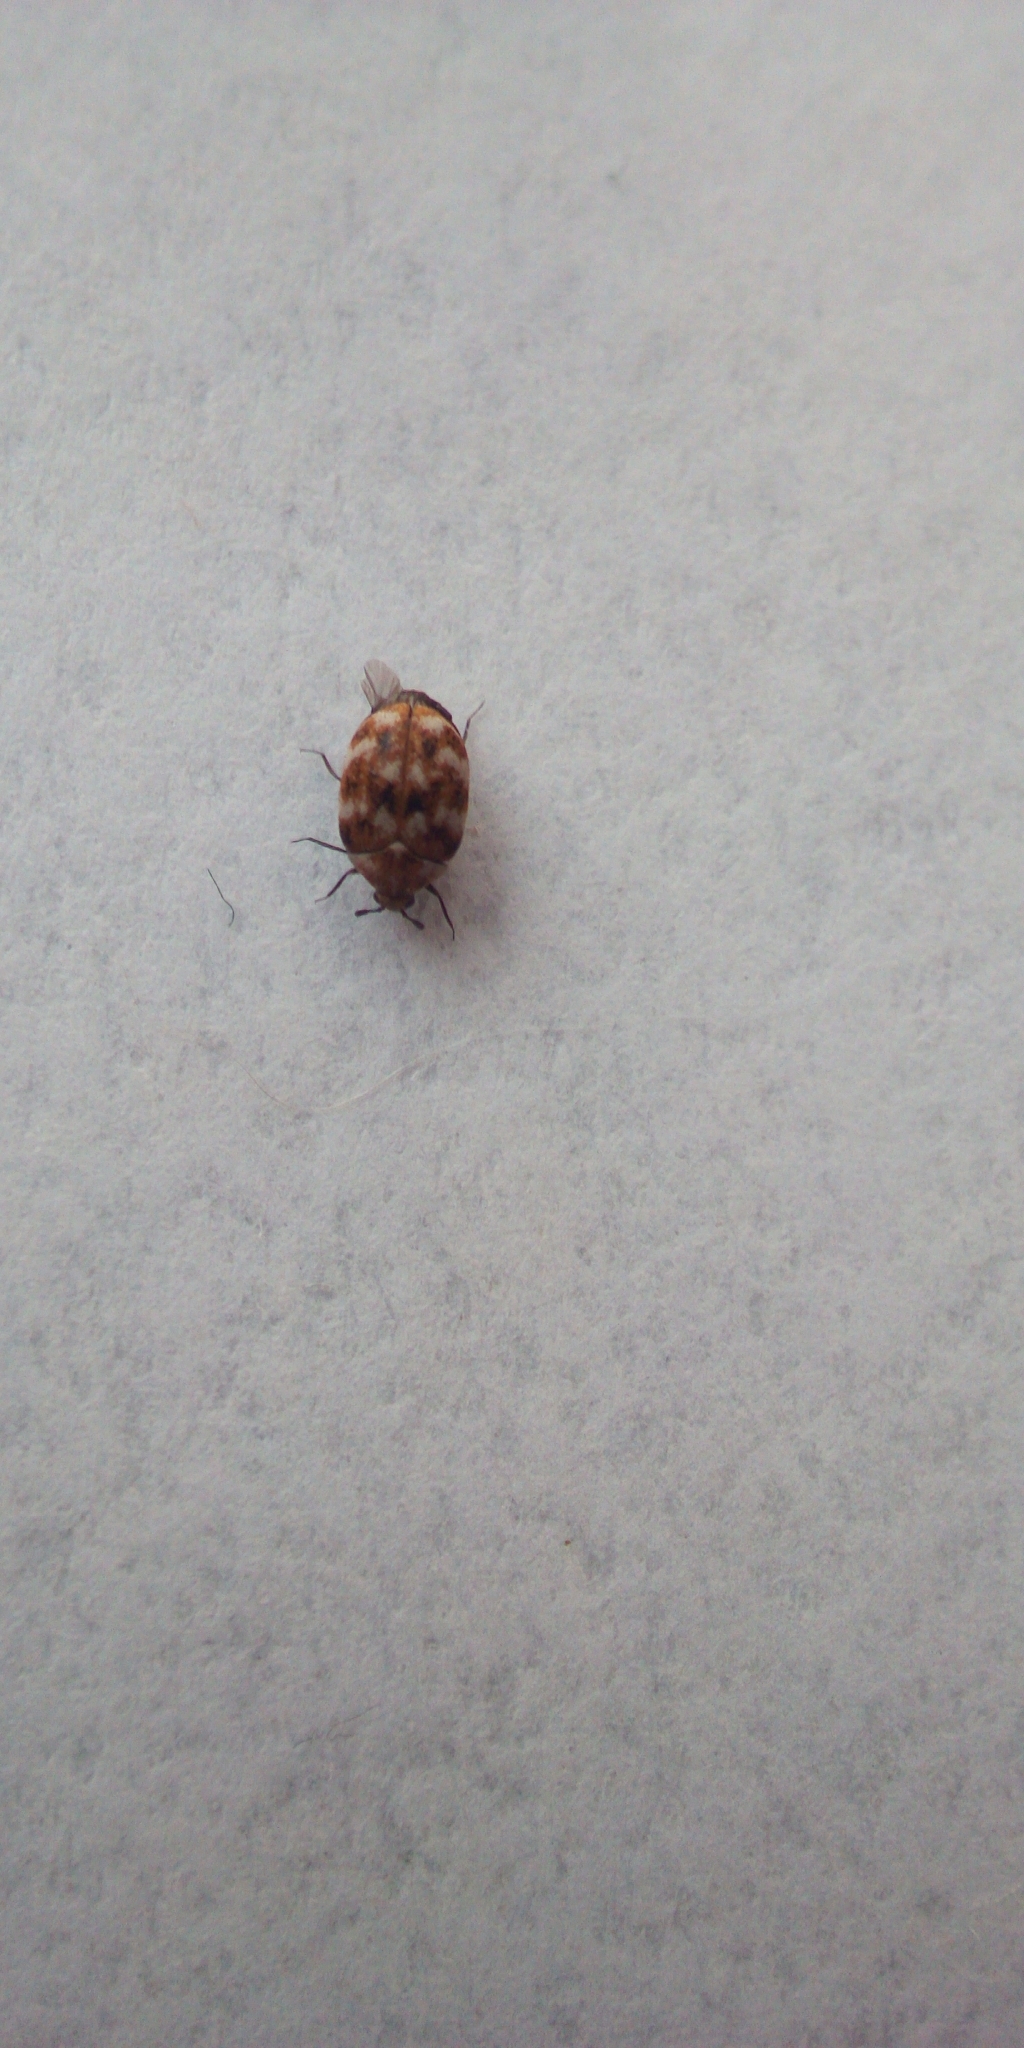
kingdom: Animalia
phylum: Arthropoda
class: Insecta
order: Coleoptera
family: Dermestidae
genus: Anthrenus
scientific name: Anthrenus verbasci
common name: Varied carpet beetle
